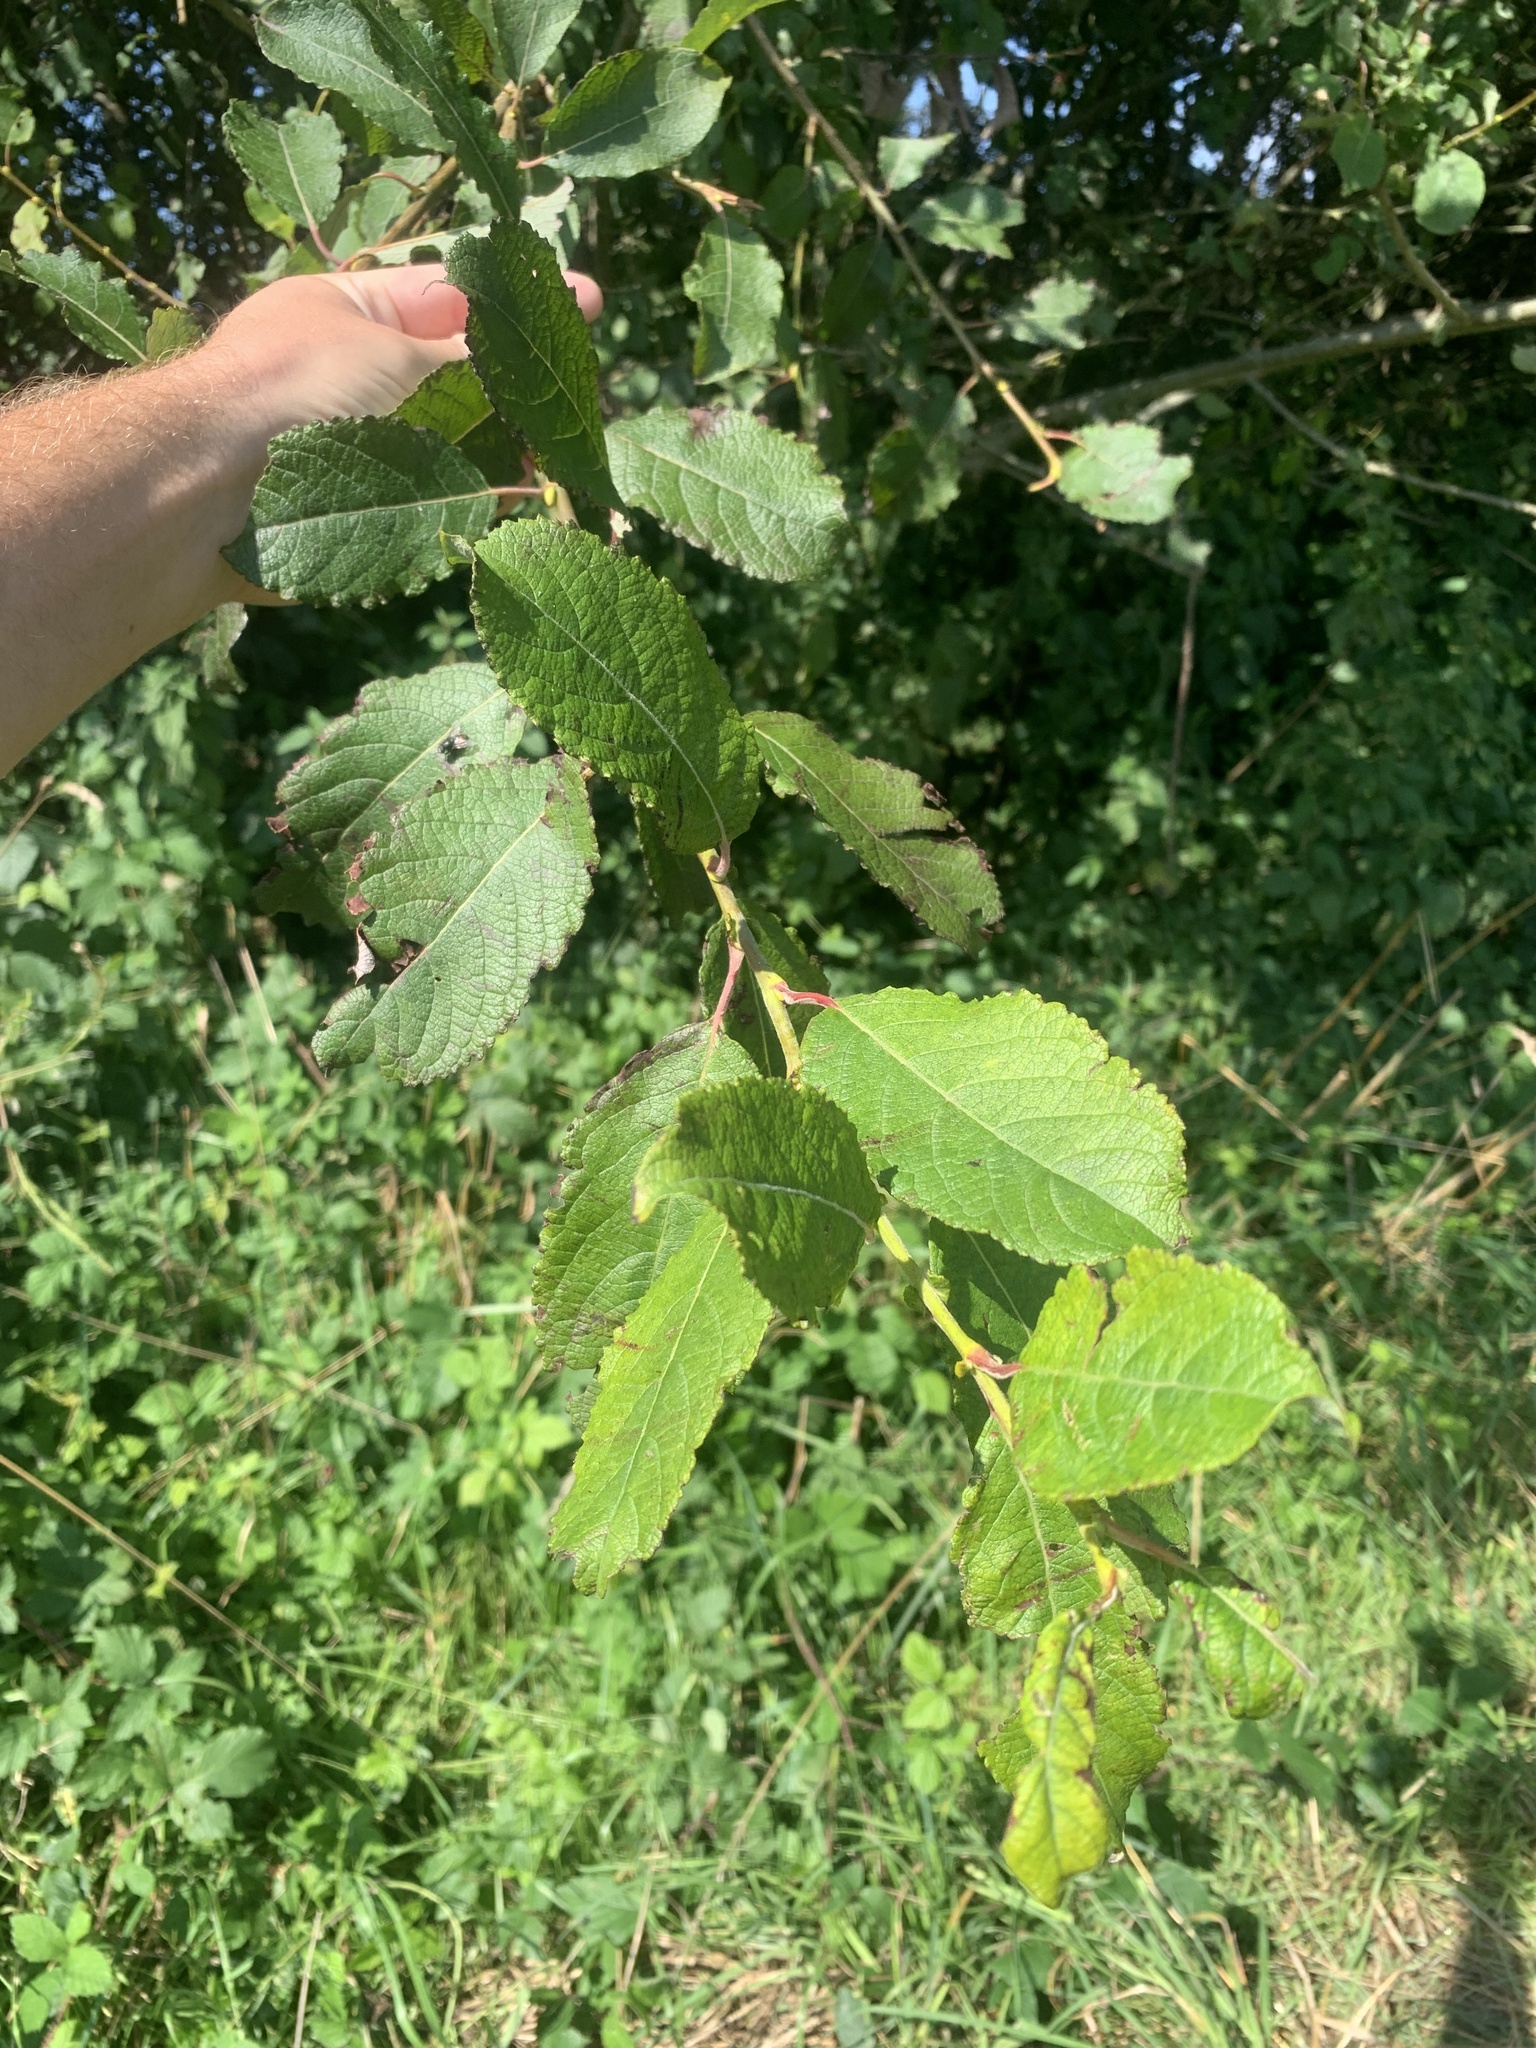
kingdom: Plantae
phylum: Tracheophyta
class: Magnoliopsida
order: Malpighiales
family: Salicaceae
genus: Salix
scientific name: Salix caprea
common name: Goat willow
